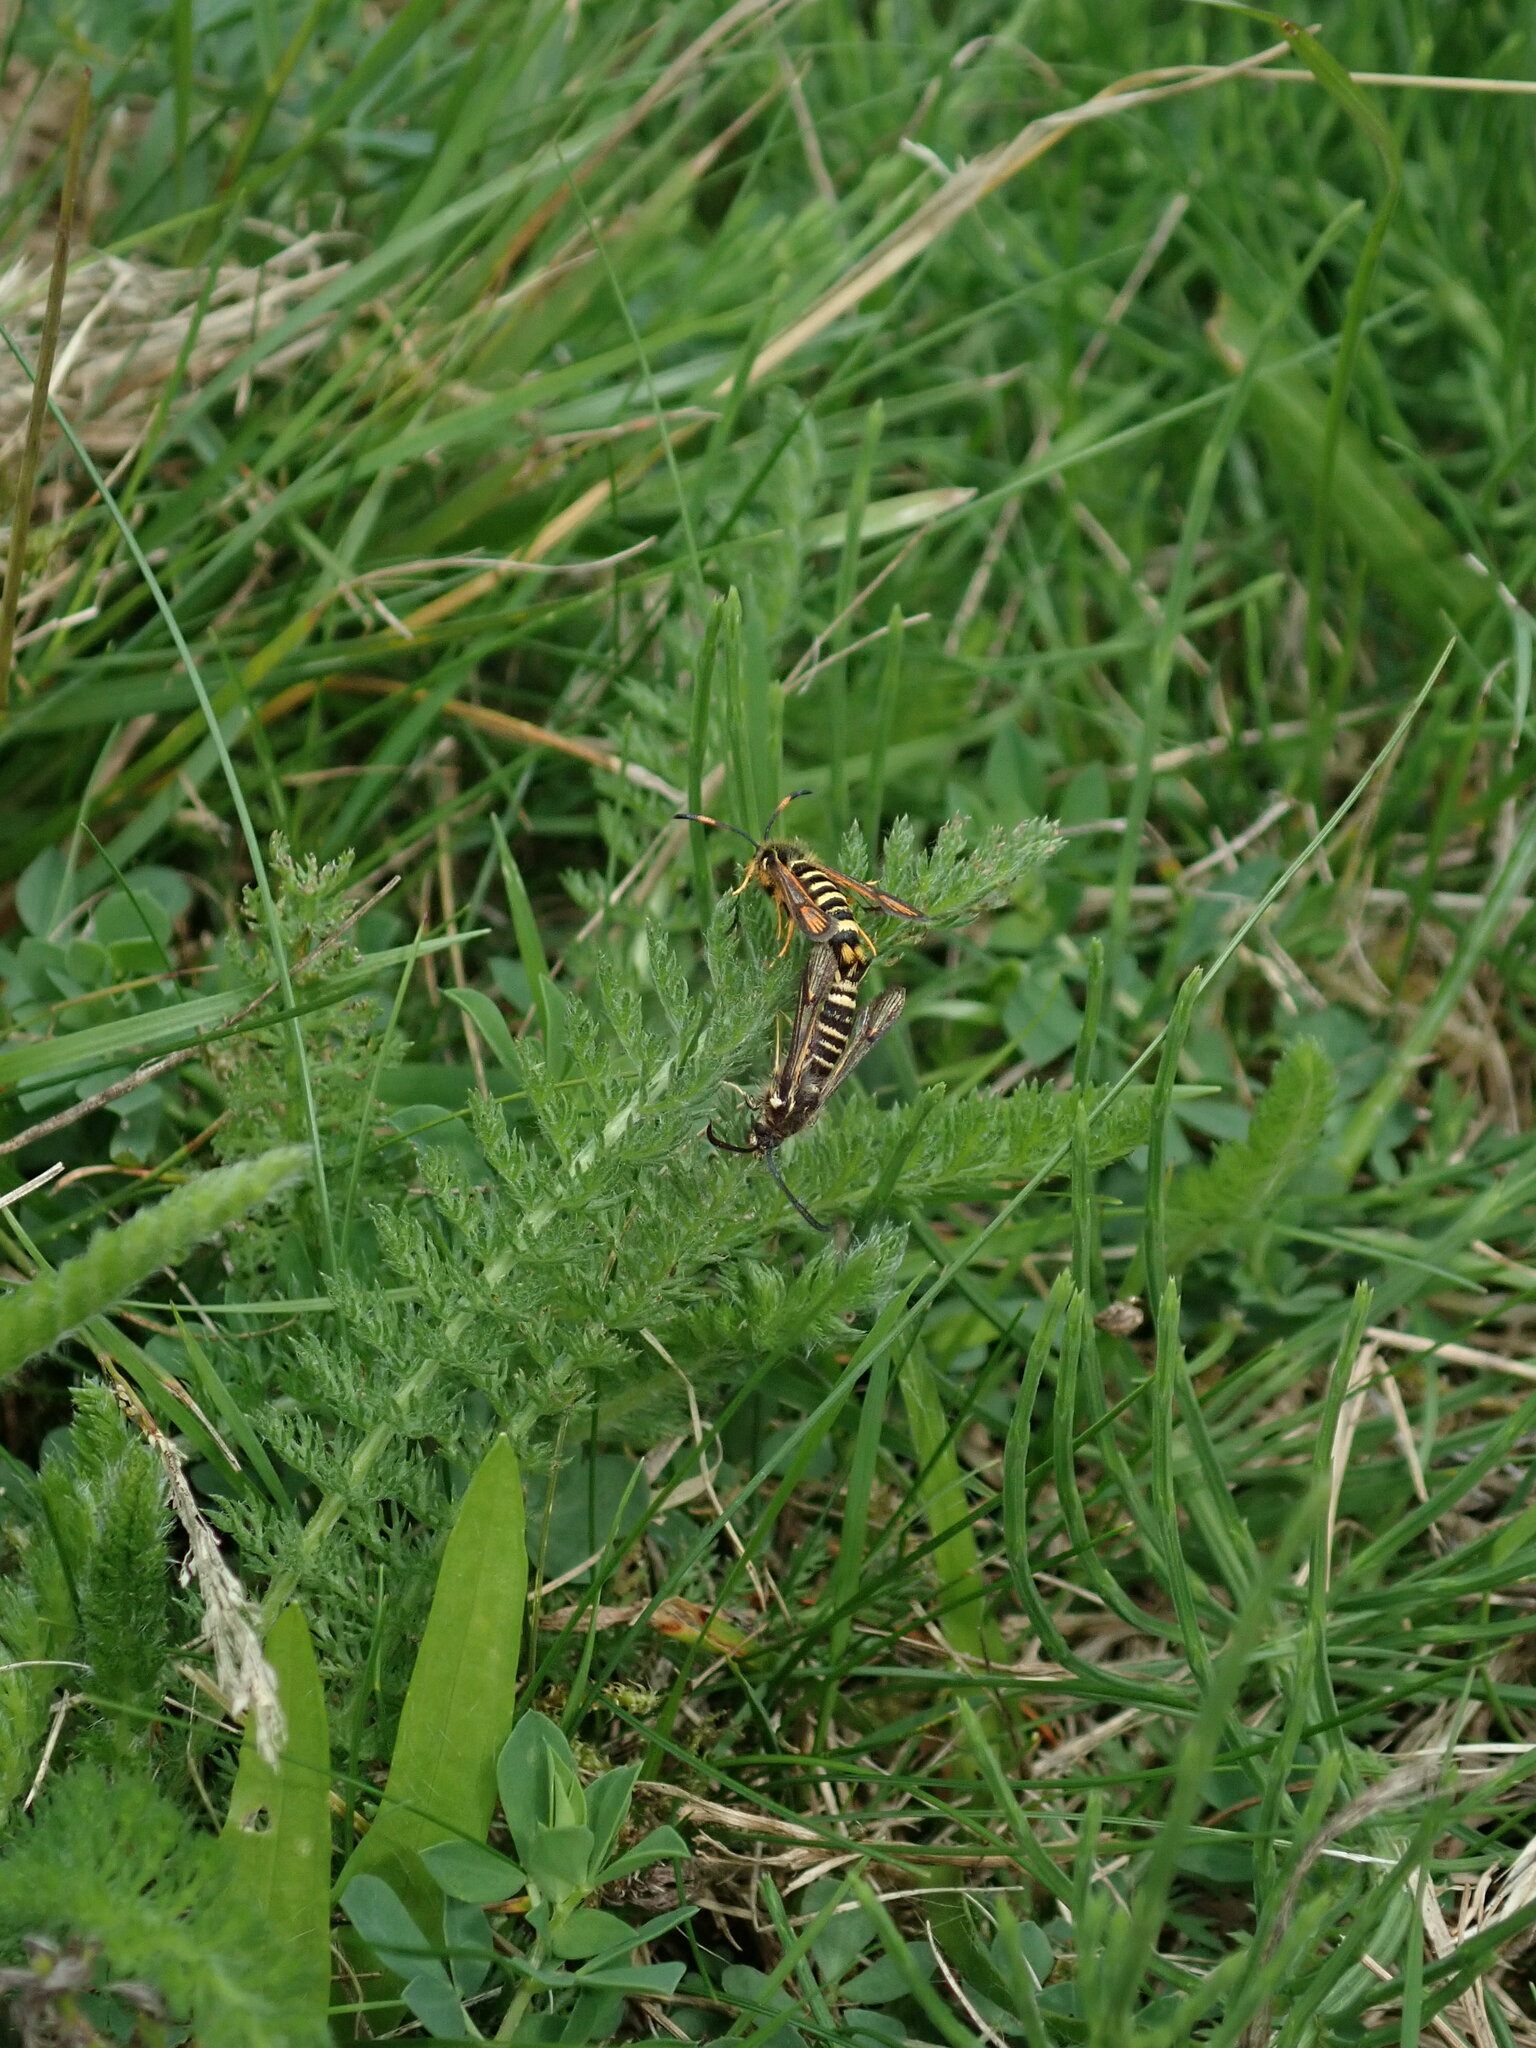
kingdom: Animalia
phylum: Arthropoda
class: Insecta
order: Lepidoptera
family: Sesiidae
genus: Bembecia
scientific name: Bembecia ichneumoniformis
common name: Six-belted clearwing
